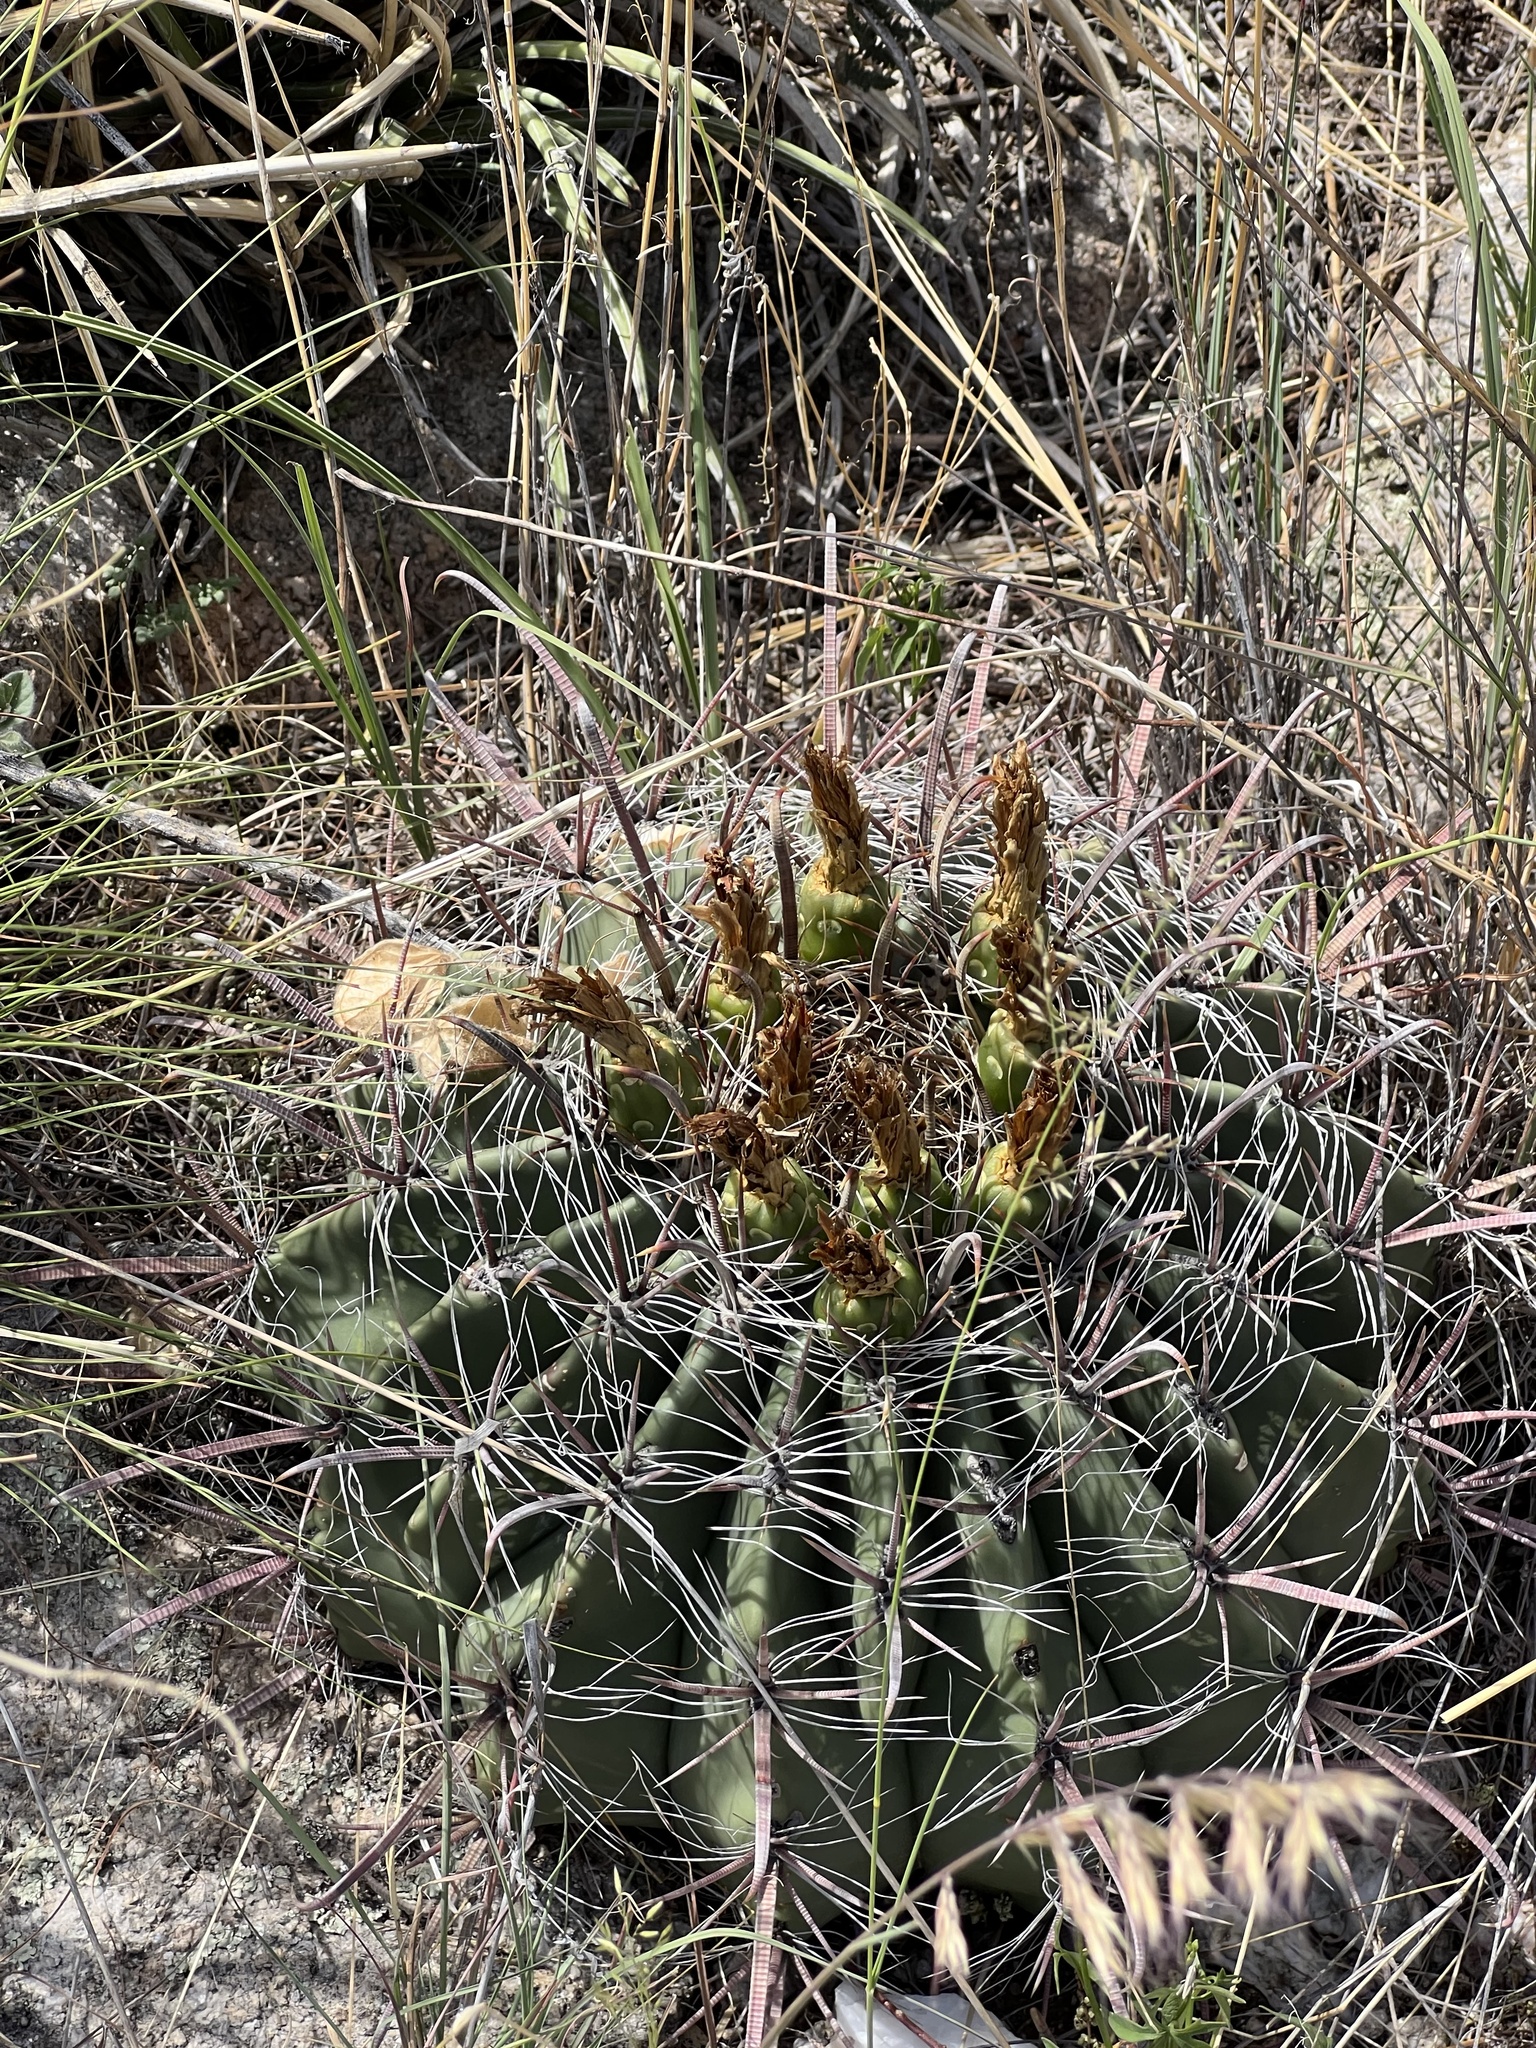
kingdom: Plantae
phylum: Tracheophyta
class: Magnoliopsida
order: Caryophyllales
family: Cactaceae
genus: Ferocactus
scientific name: Ferocactus wislizeni
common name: Candy barrel cactus
